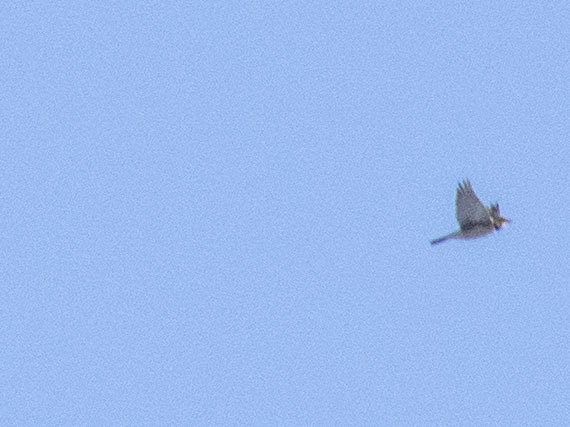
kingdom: Animalia
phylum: Chordata
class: Aves
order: Passeriformes
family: Alaudidae
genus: Eremophila
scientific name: Eremophila alpestris
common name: Horned lark
